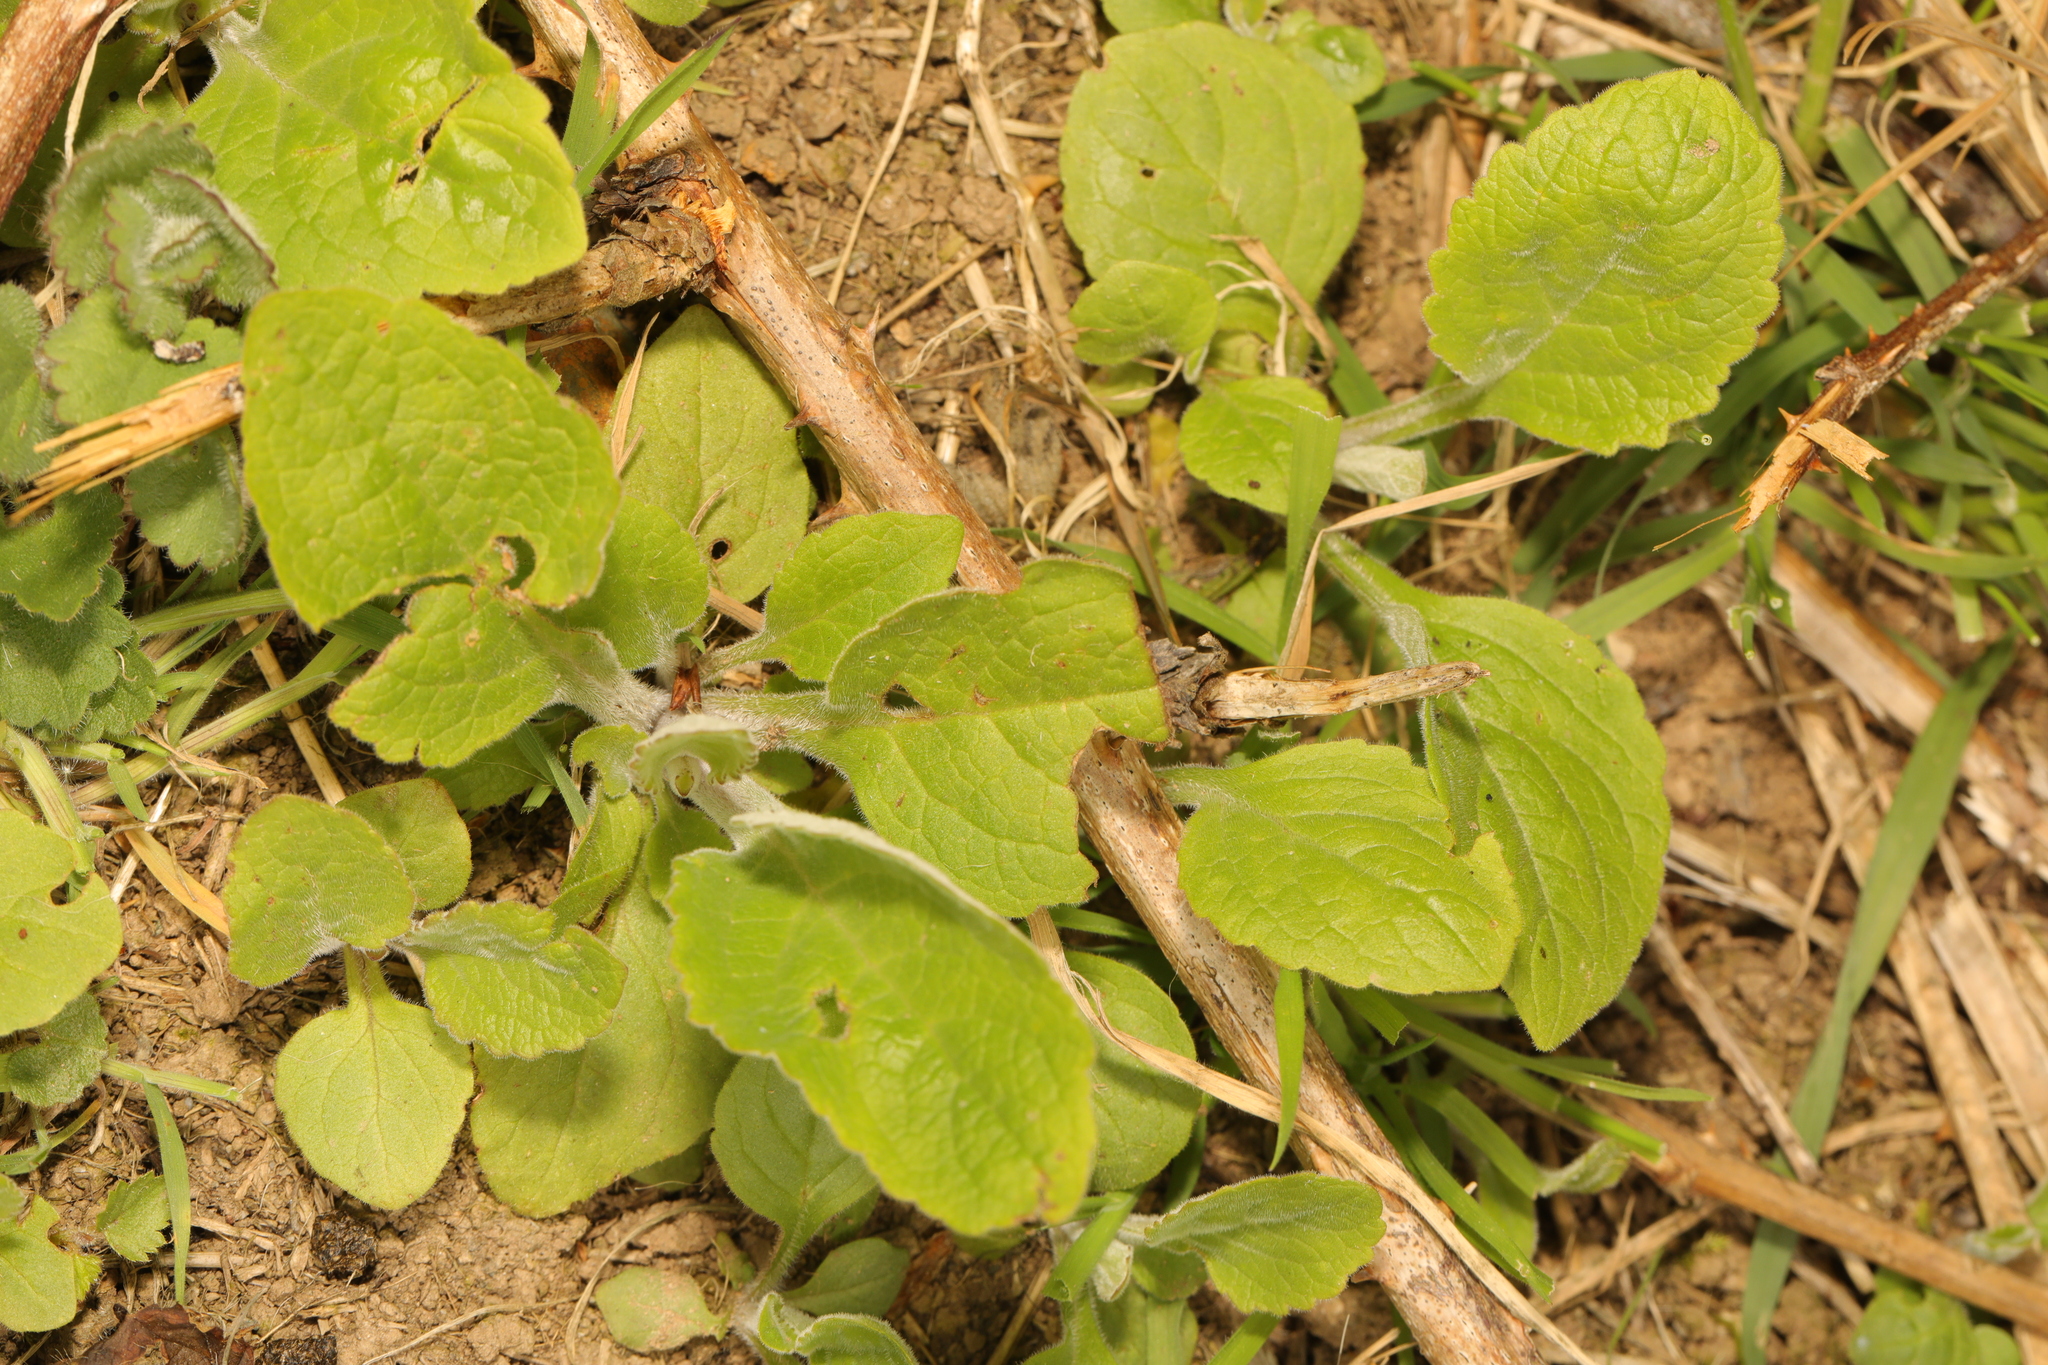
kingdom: Plantae
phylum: Tracheophyta
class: Magnoliopsida
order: Lamiales
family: Plantaginaceae
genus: Digitalis
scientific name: Digitalis purpurea
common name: Foxglove
